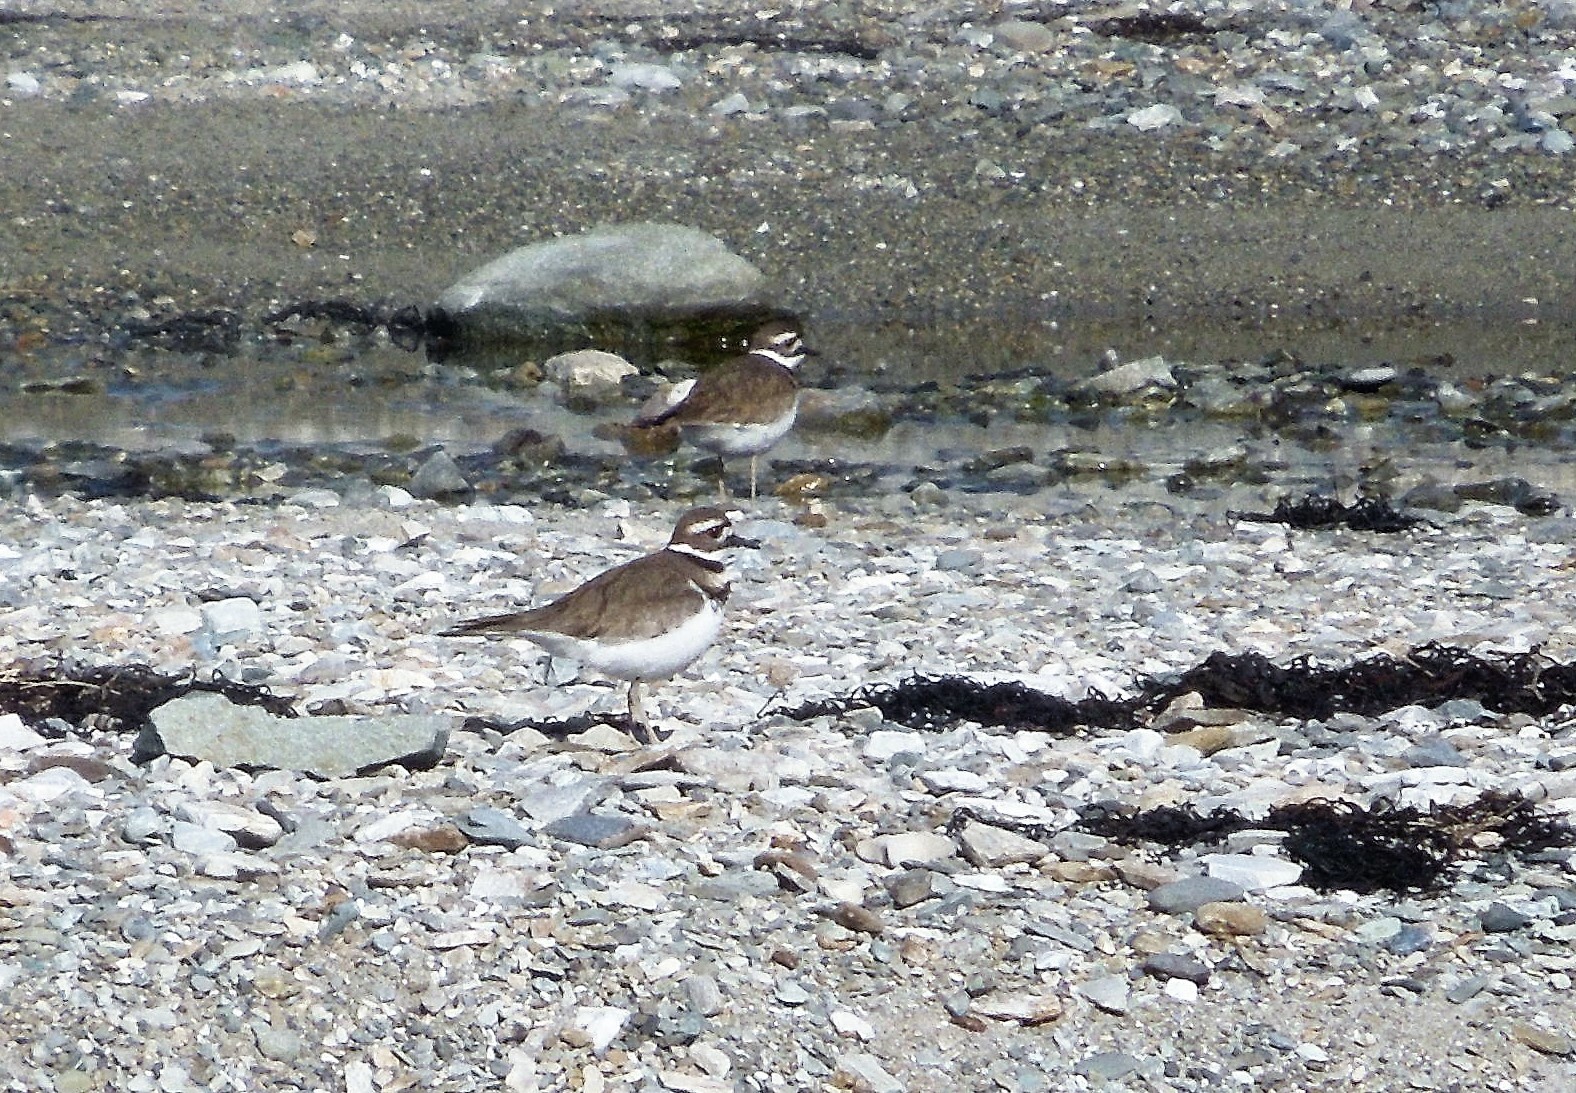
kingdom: Animalia
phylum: Chordata
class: Aves
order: Charadriiformes
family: Charadriidae
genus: Charadrius
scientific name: Charadrius vociferus
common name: Killdeer
